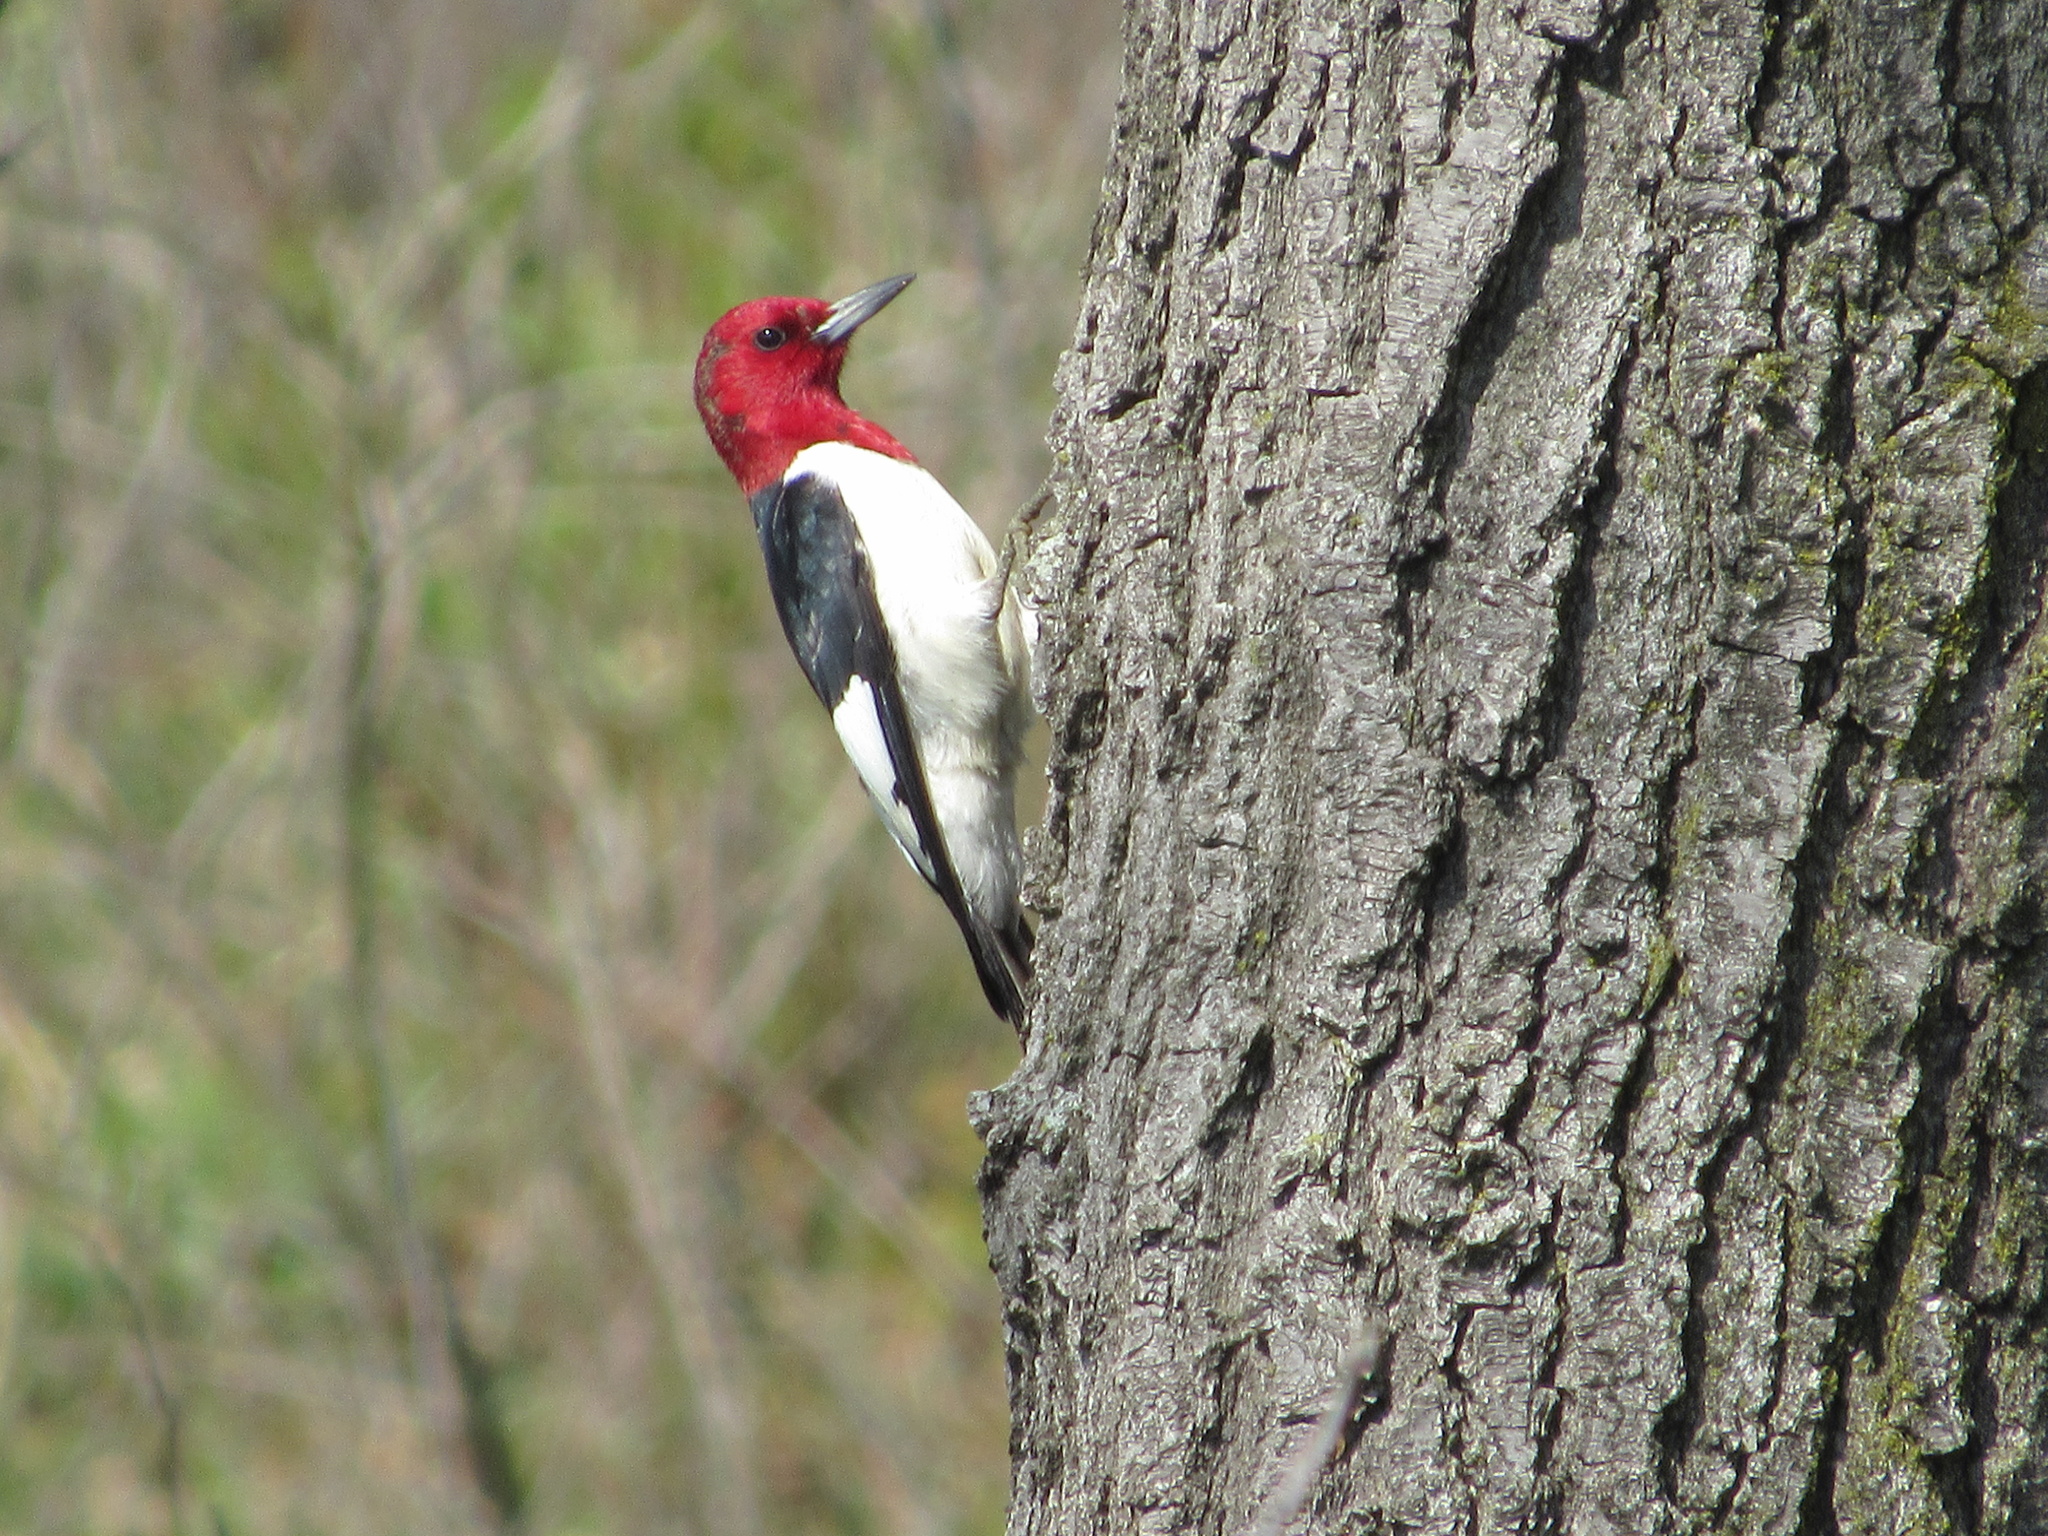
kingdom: Animalia
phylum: Chordata
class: Aves
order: Piciformes
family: Picidae
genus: Melanerpes
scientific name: Melanerpes erythrocephalus
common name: Red-headed woodpecker
